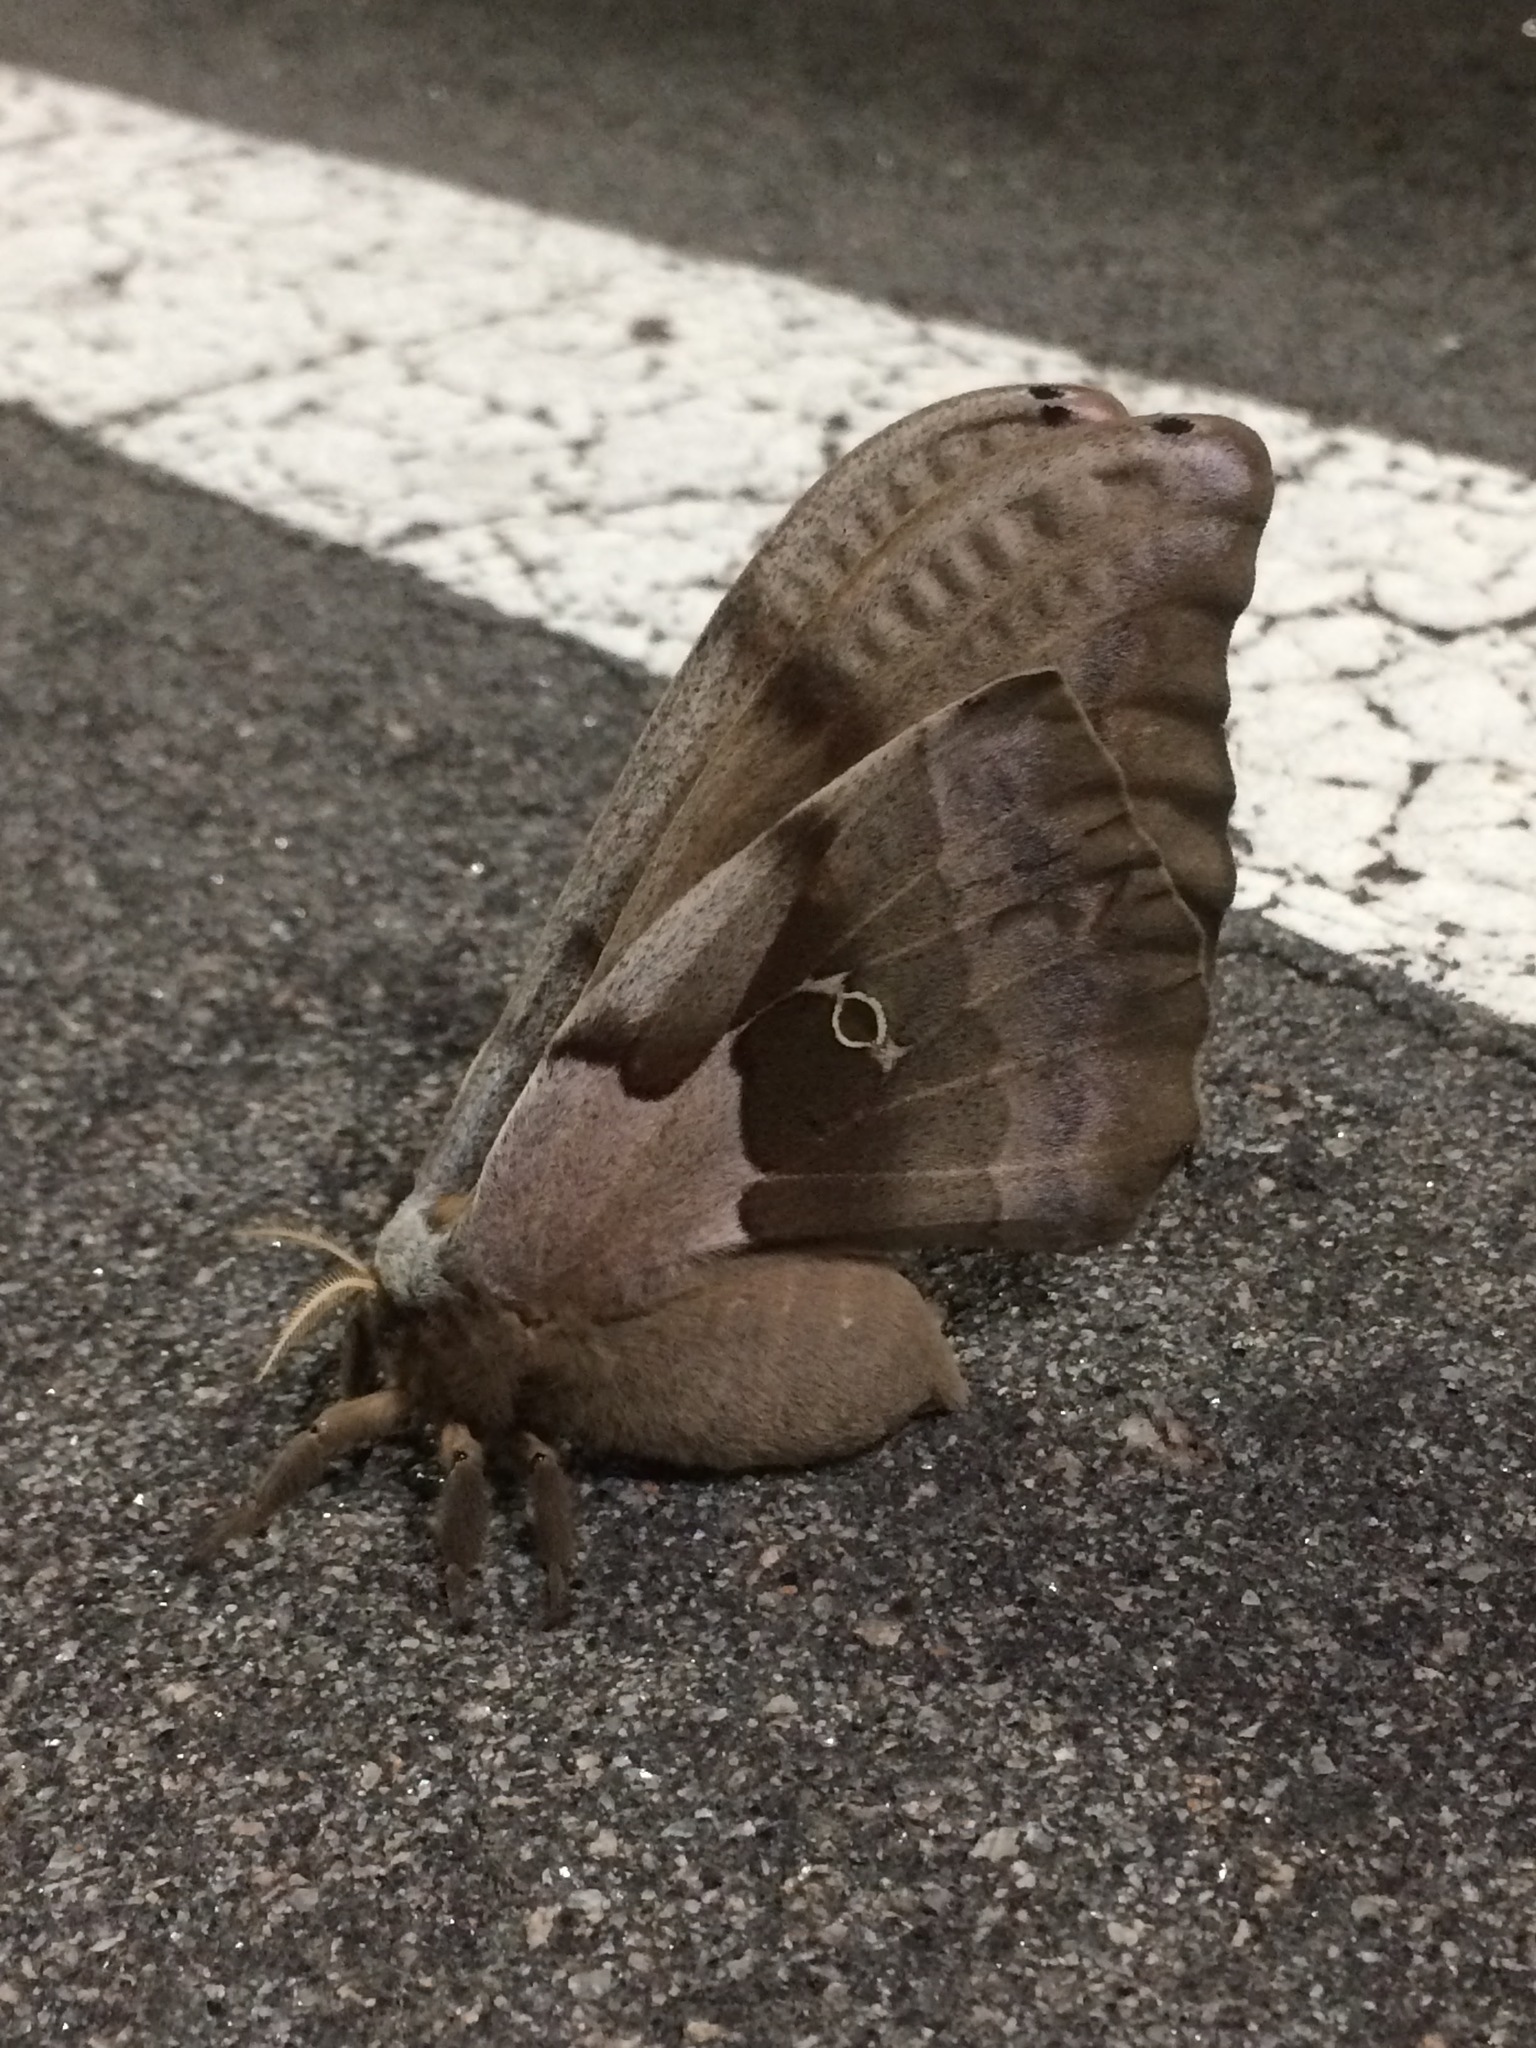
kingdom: Animalia
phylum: Arthropoda
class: Insecta
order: Lepidoptera
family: Saturniidae
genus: Antheraea
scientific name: Antheraea polyphemus
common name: Polyphemus moth
